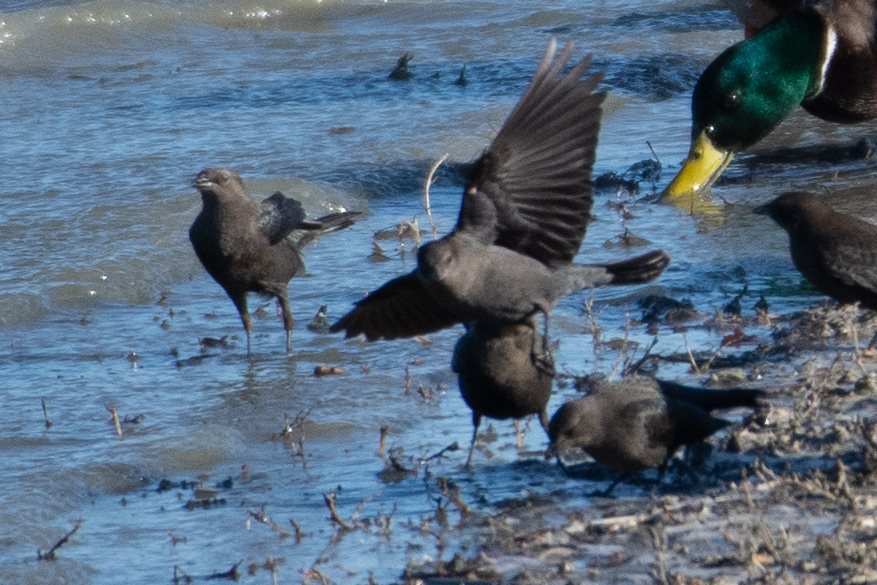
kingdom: Animalia
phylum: Chordata
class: Aves
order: Passeriformes
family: Icteridae
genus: Euphagus
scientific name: Euphagus cyanocephalus
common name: Brewer's blackbird
